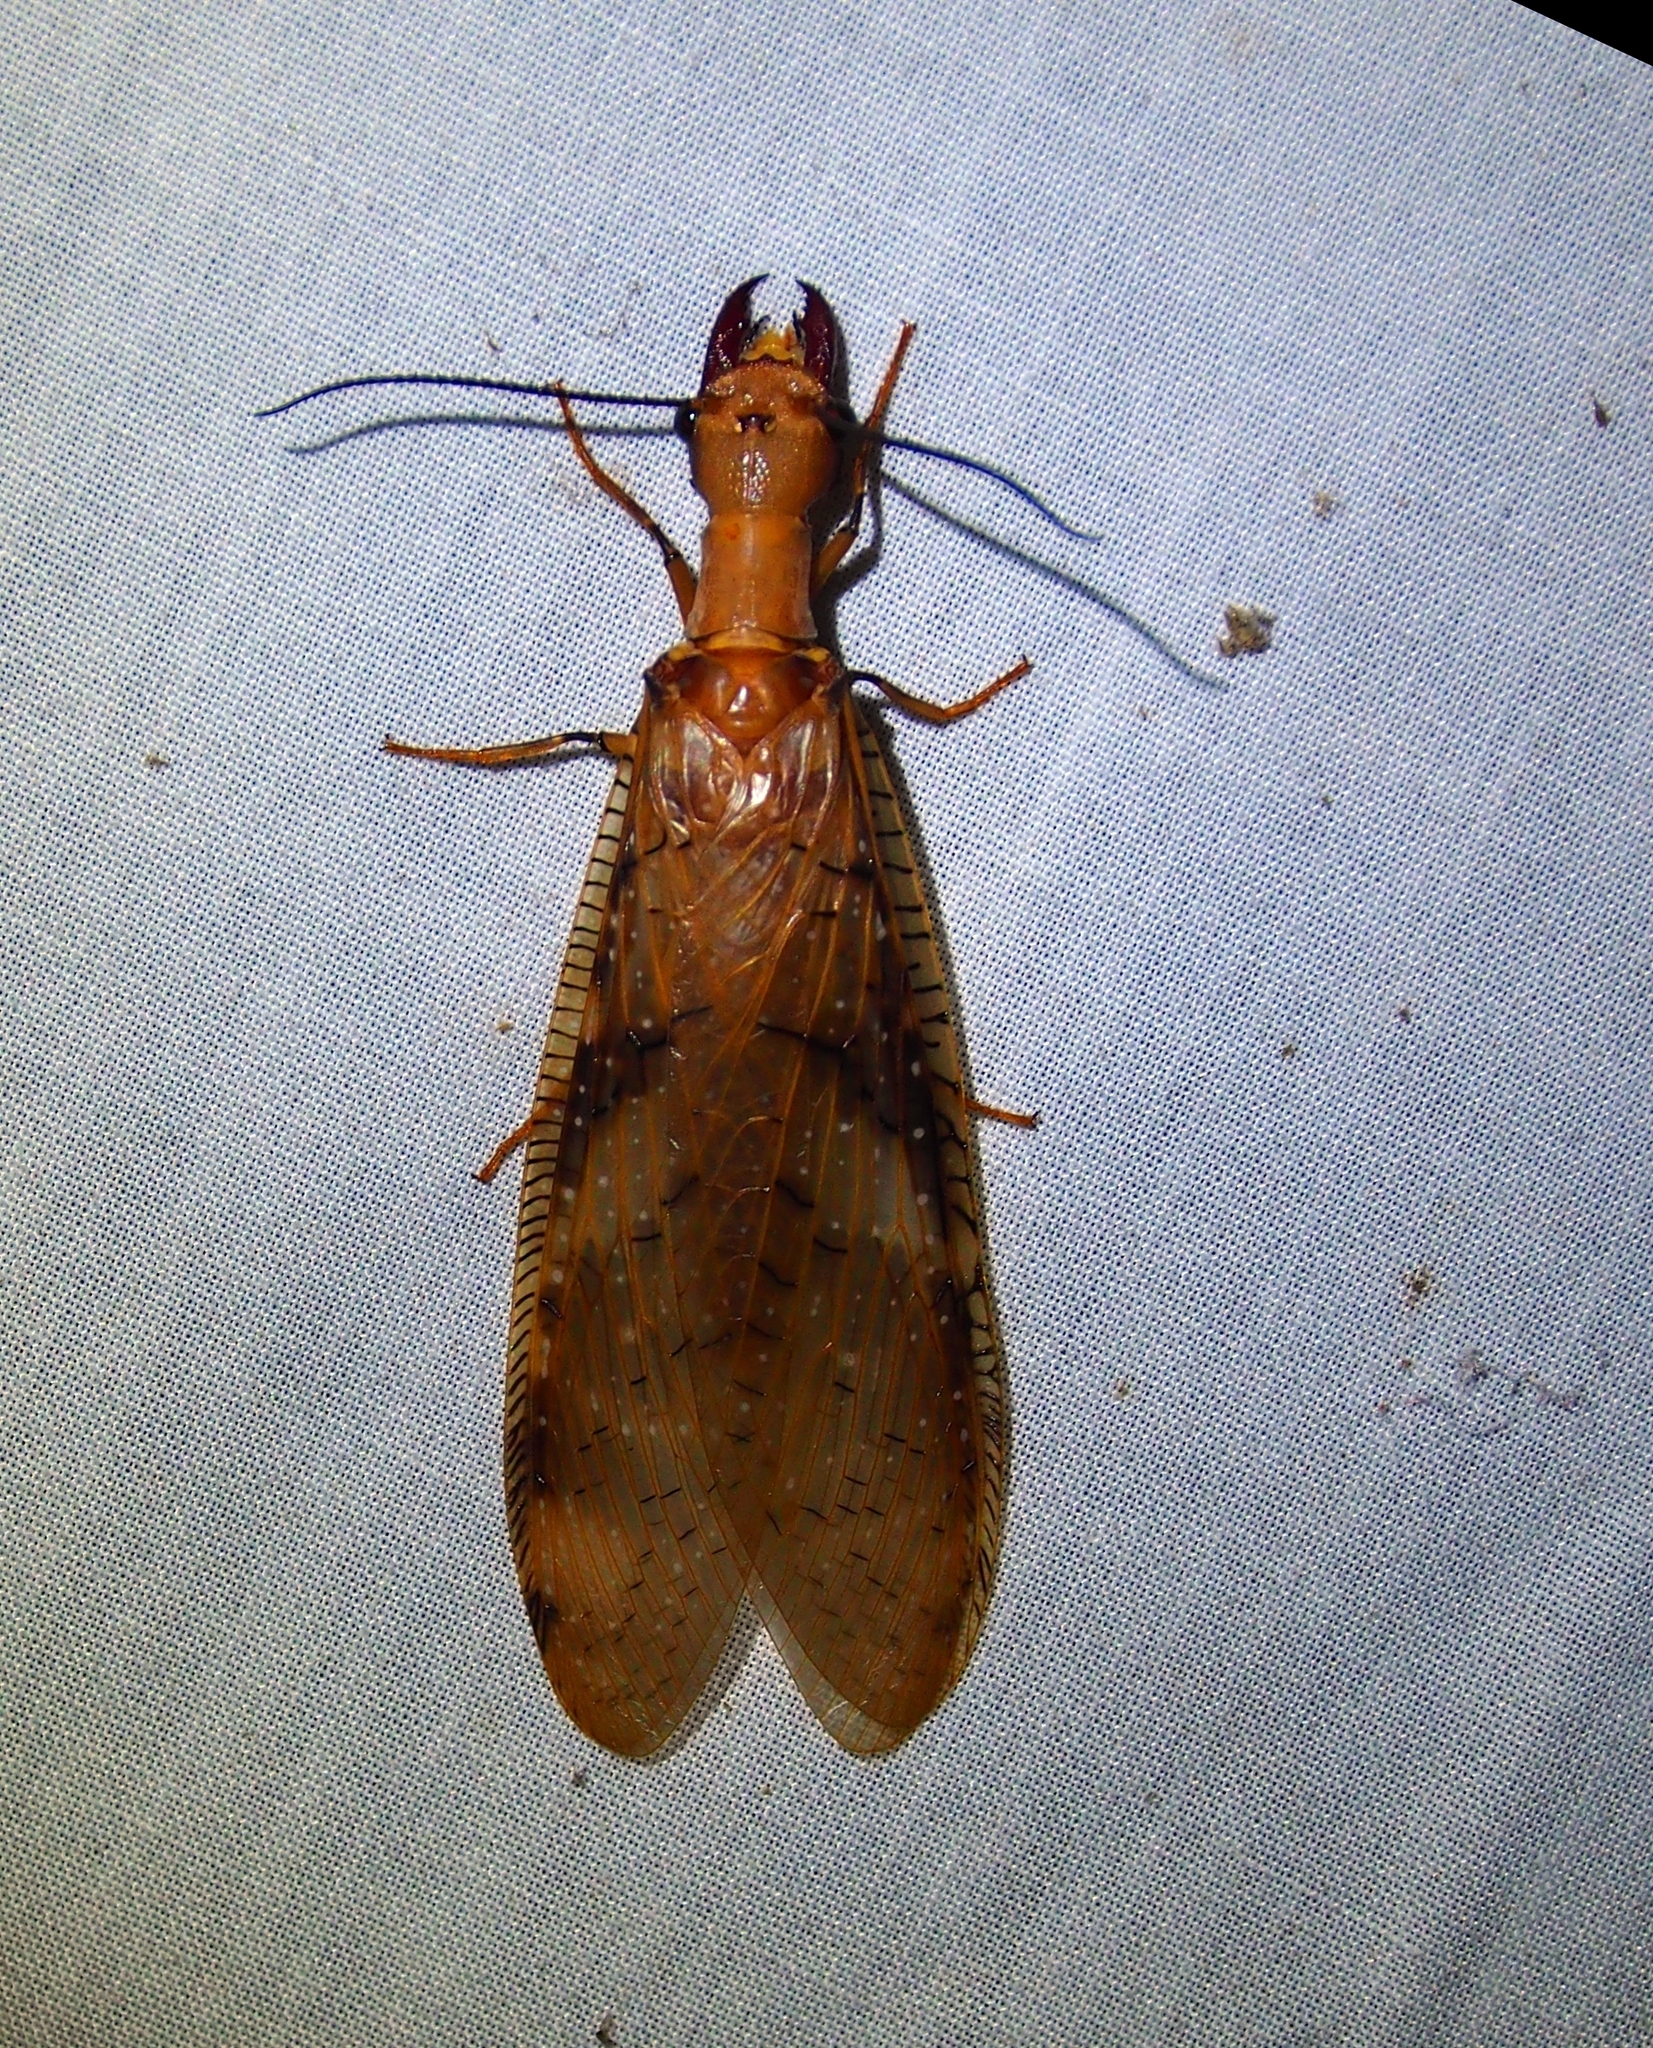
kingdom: Animalia
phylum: Arthropoda
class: Insecta
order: Megaloptera
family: Corydalidae
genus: Corydalus
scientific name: Corydalus flavicornis
